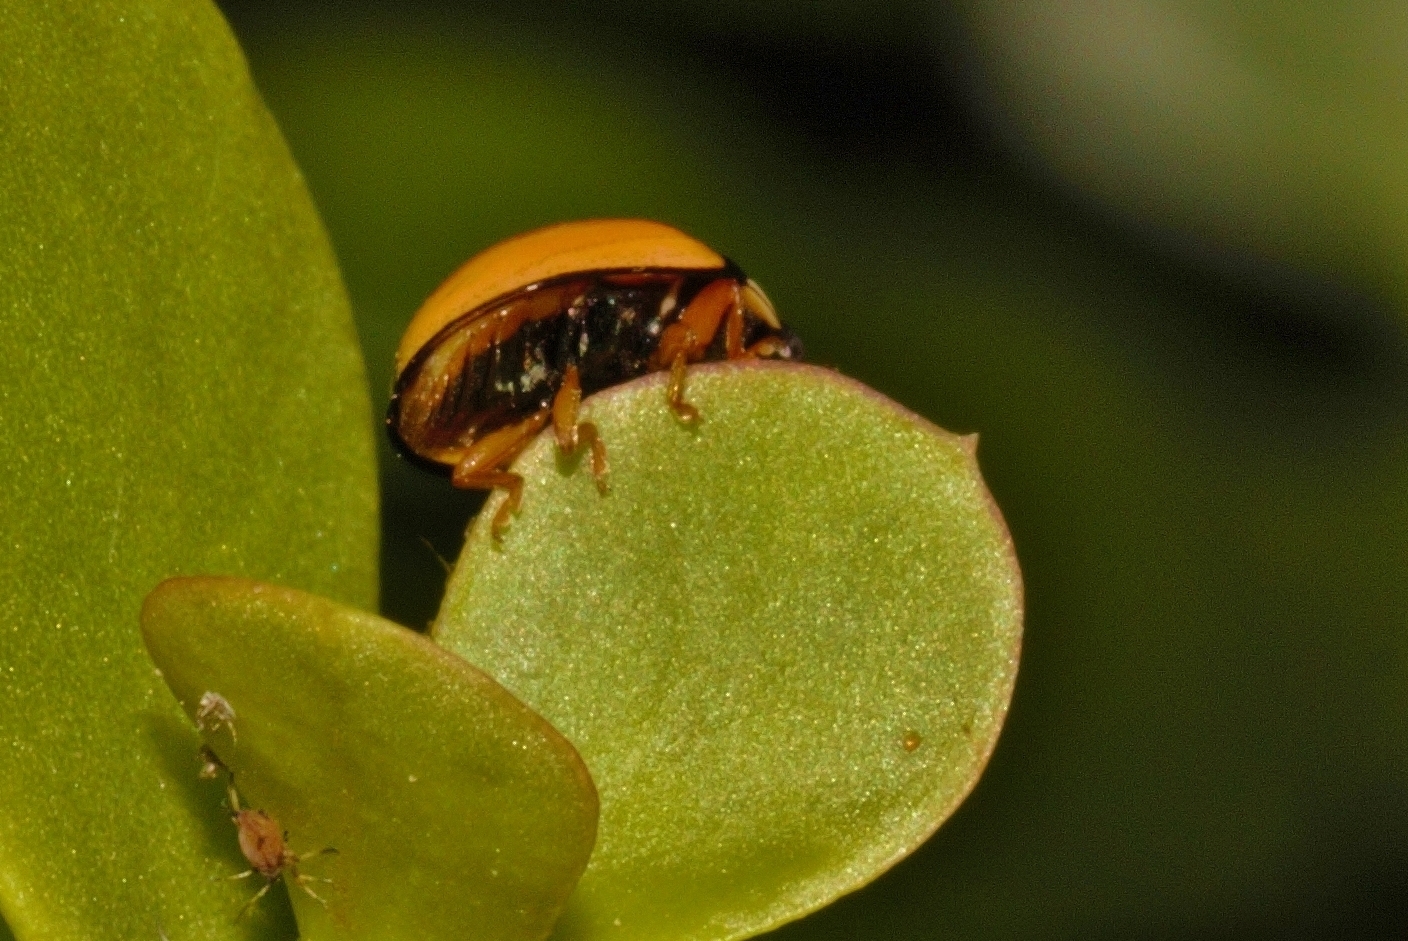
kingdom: Animalia
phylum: Arthropoda
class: Insecta
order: Coleoptera
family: Coccinellidae
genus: Cheilomenes
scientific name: Cheilomenes propinqua
